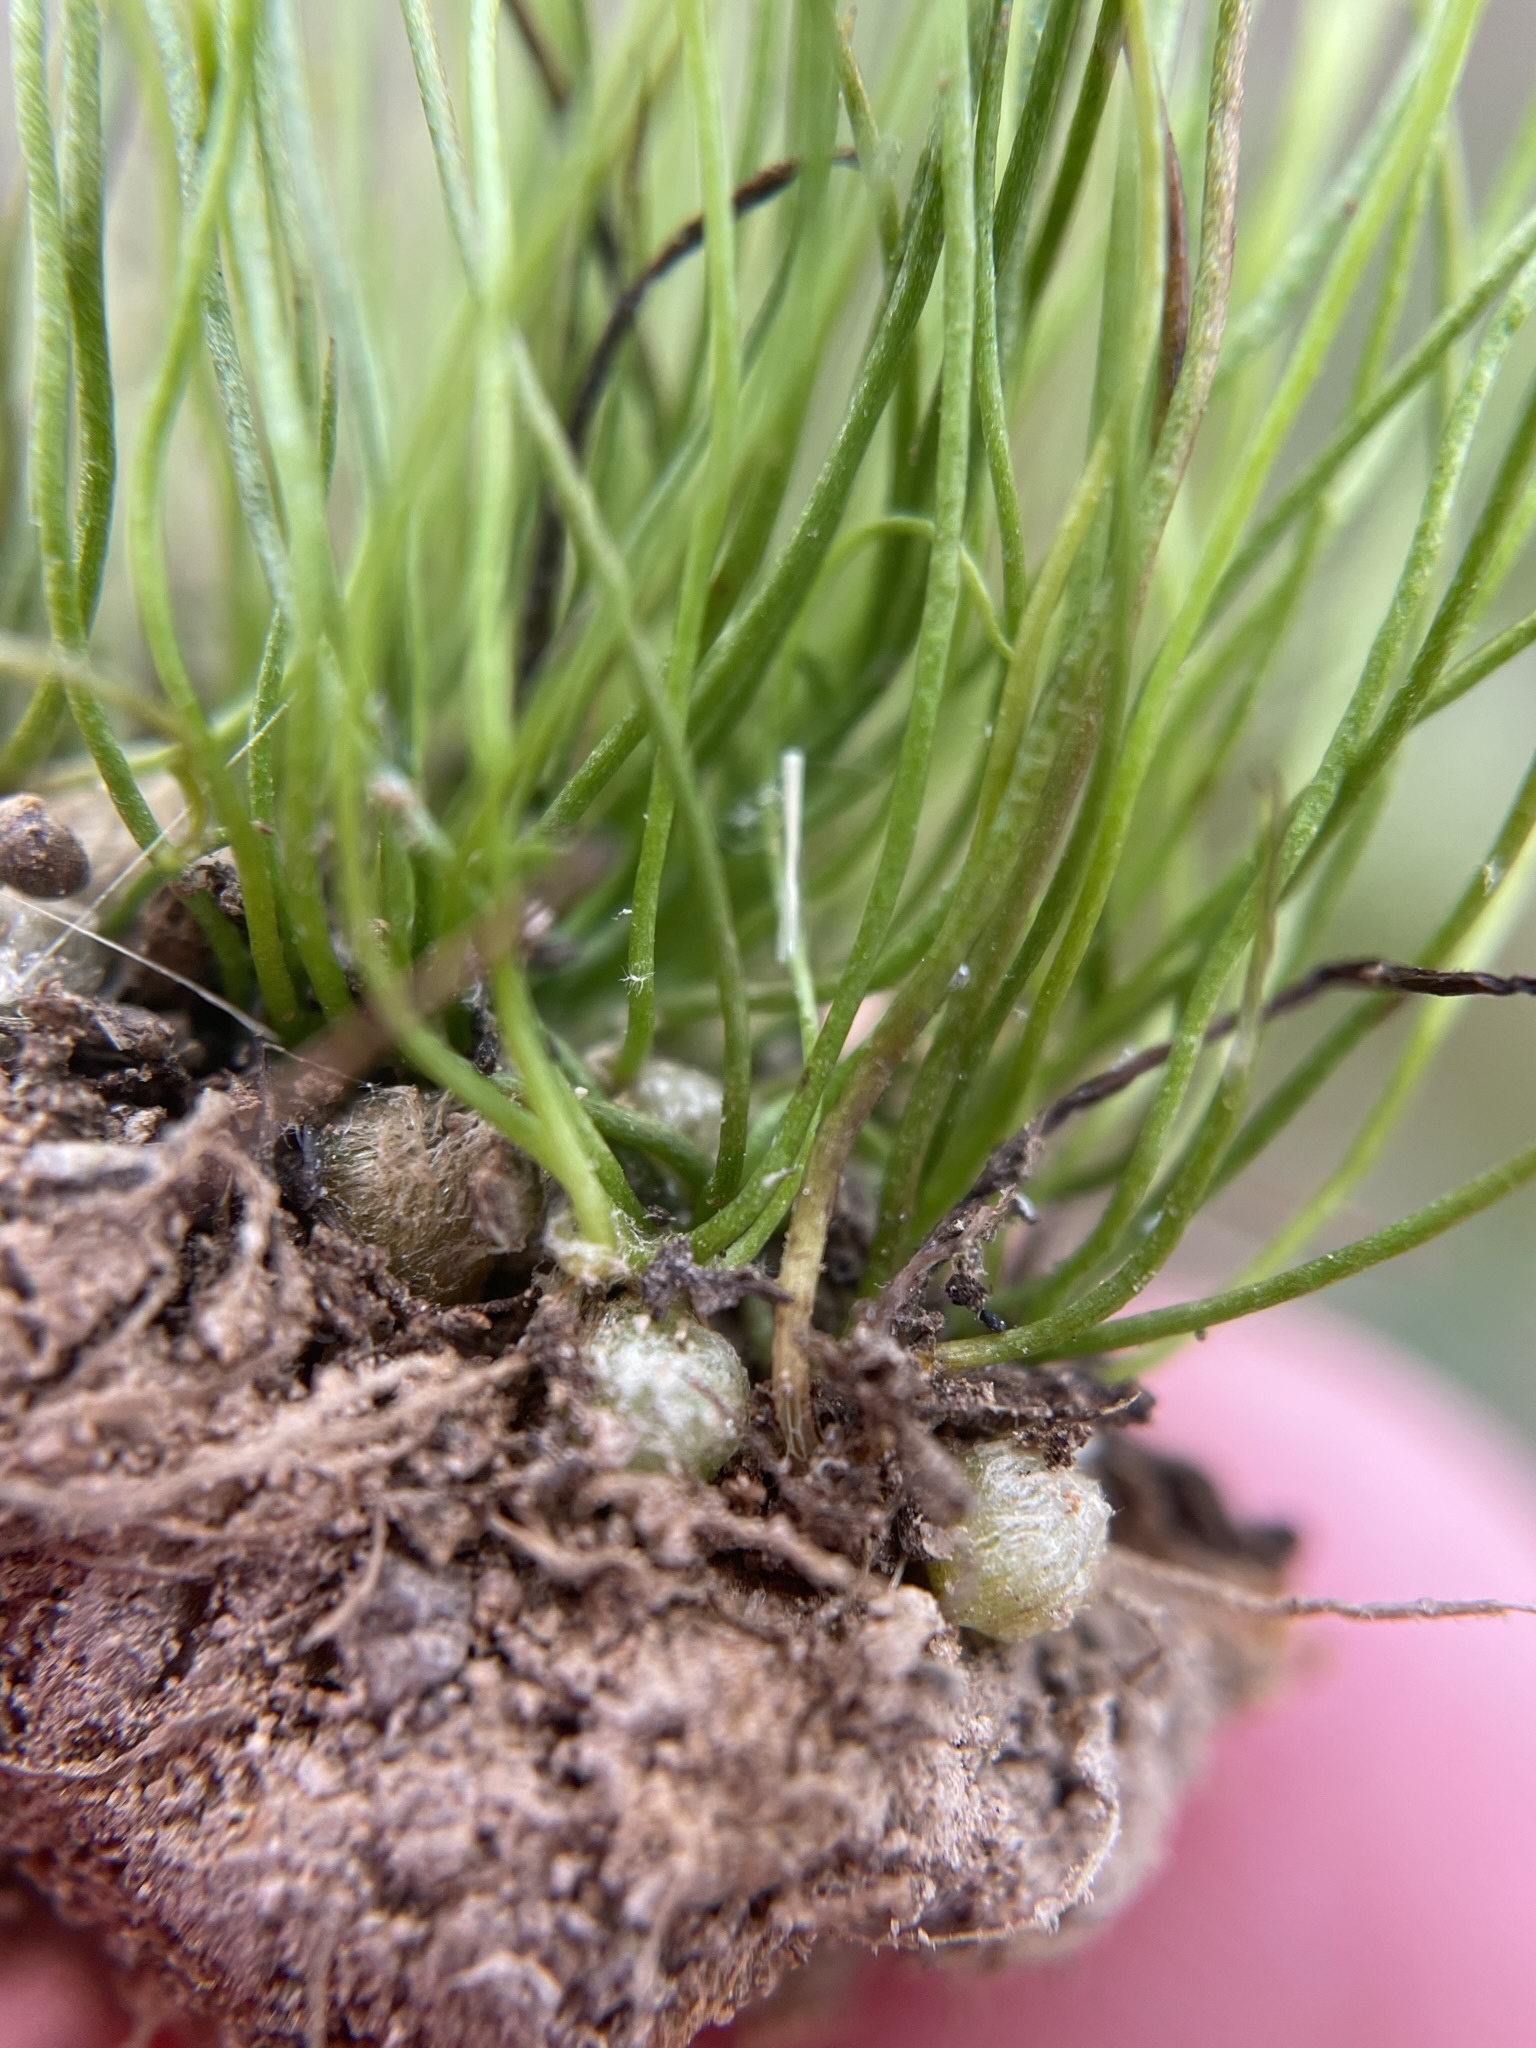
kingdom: Plantae
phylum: Tracheophyta
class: Polypodiopsida
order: Salviniales
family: Marsileaceae
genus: Pilularia
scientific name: Pilularia americana
